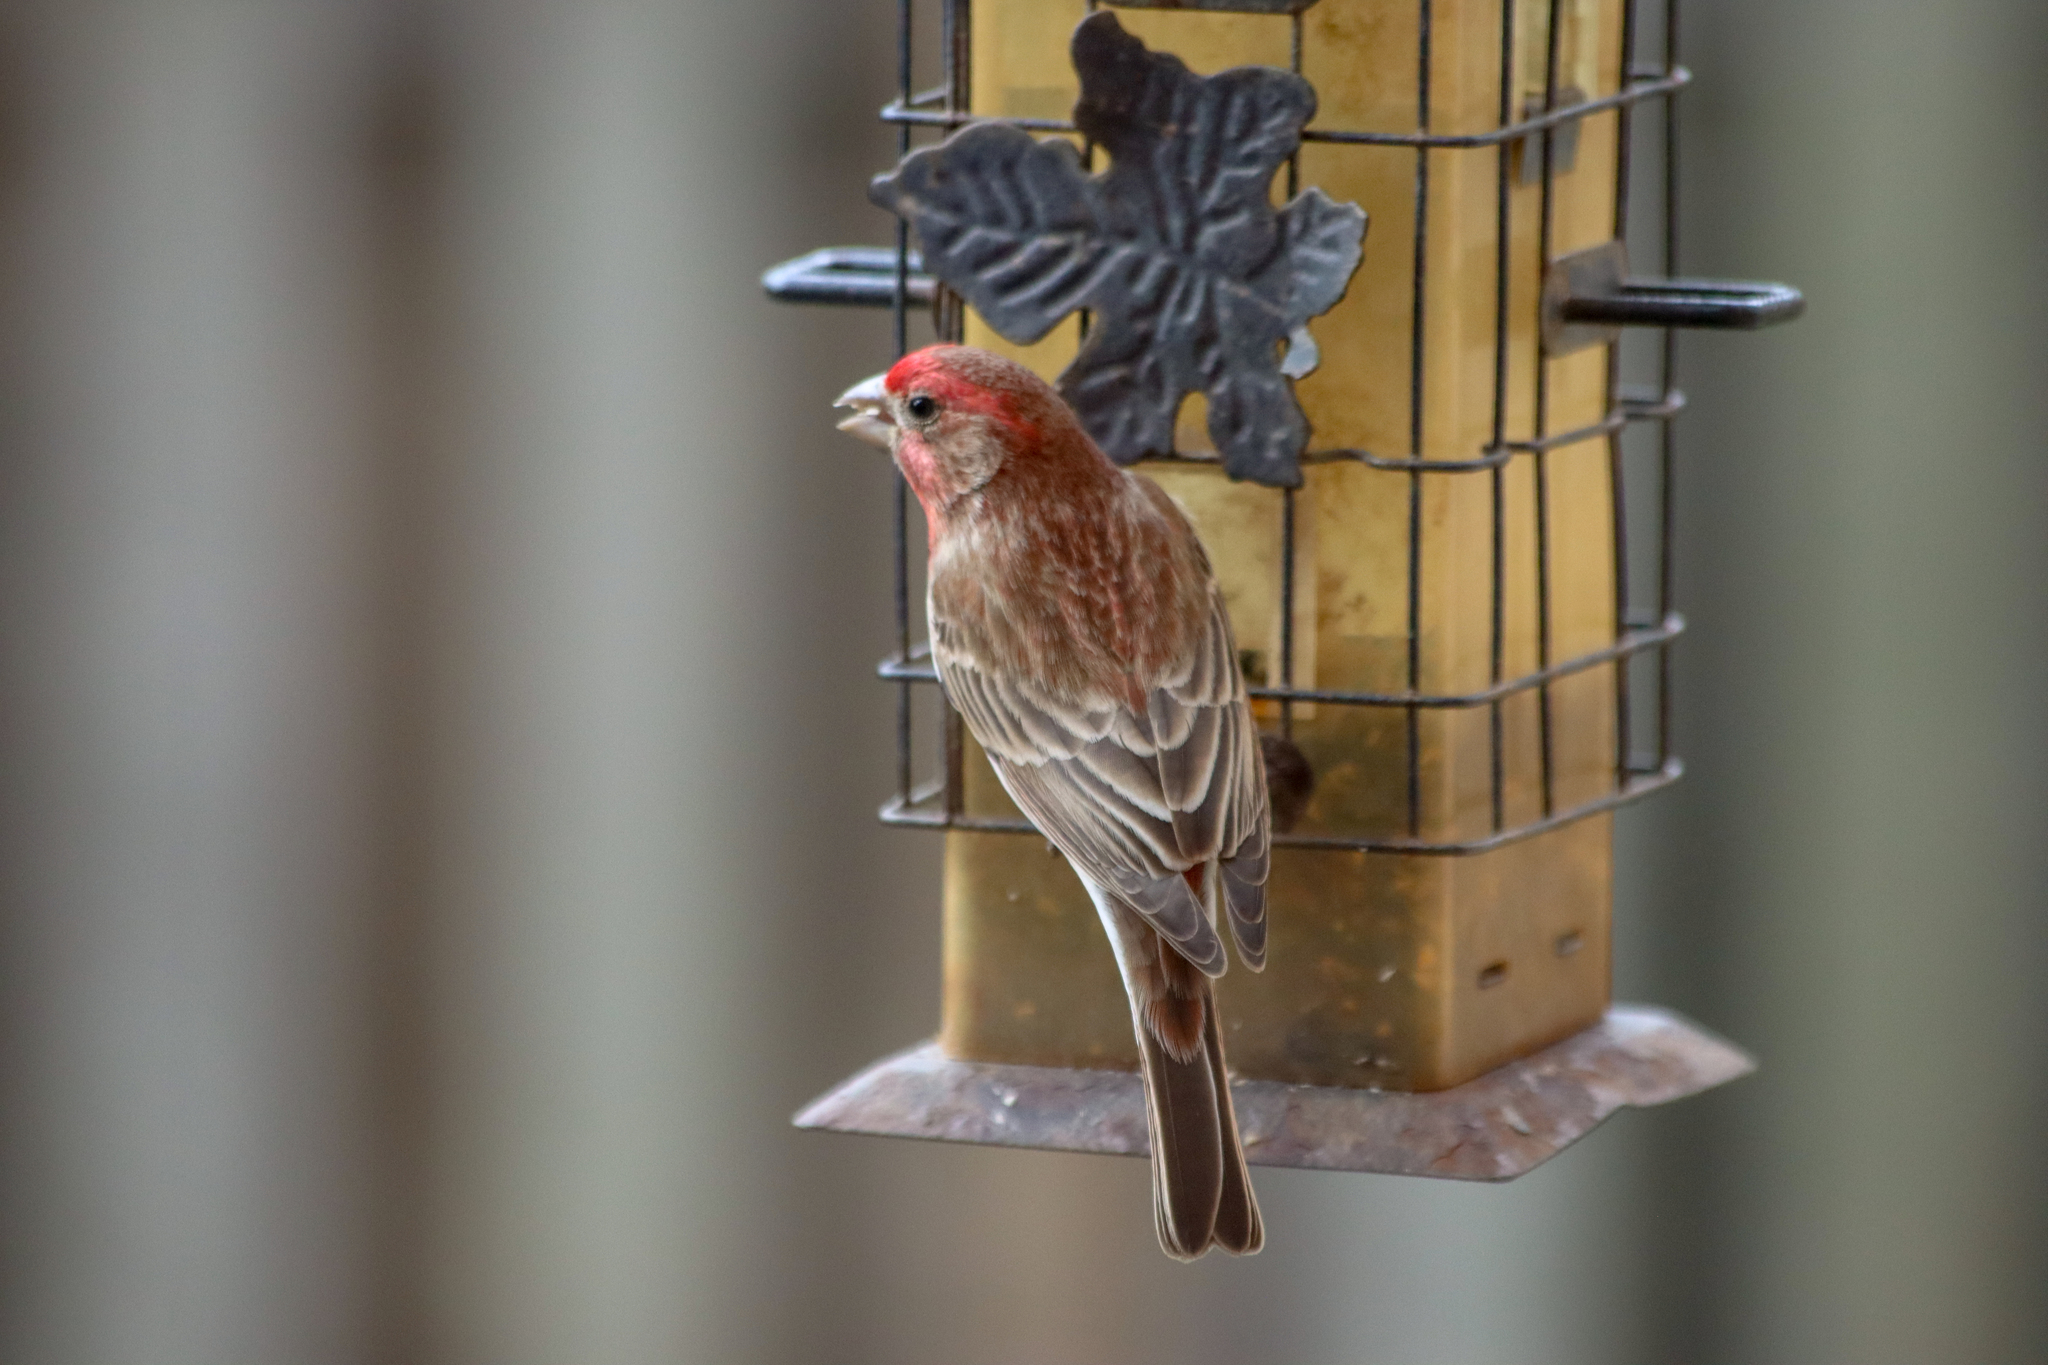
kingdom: Animalia
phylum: Chordata
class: Aves
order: Passeriformes
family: Fringillidae
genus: Haemorhous
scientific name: Haemorhous mexicanus
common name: House finch
